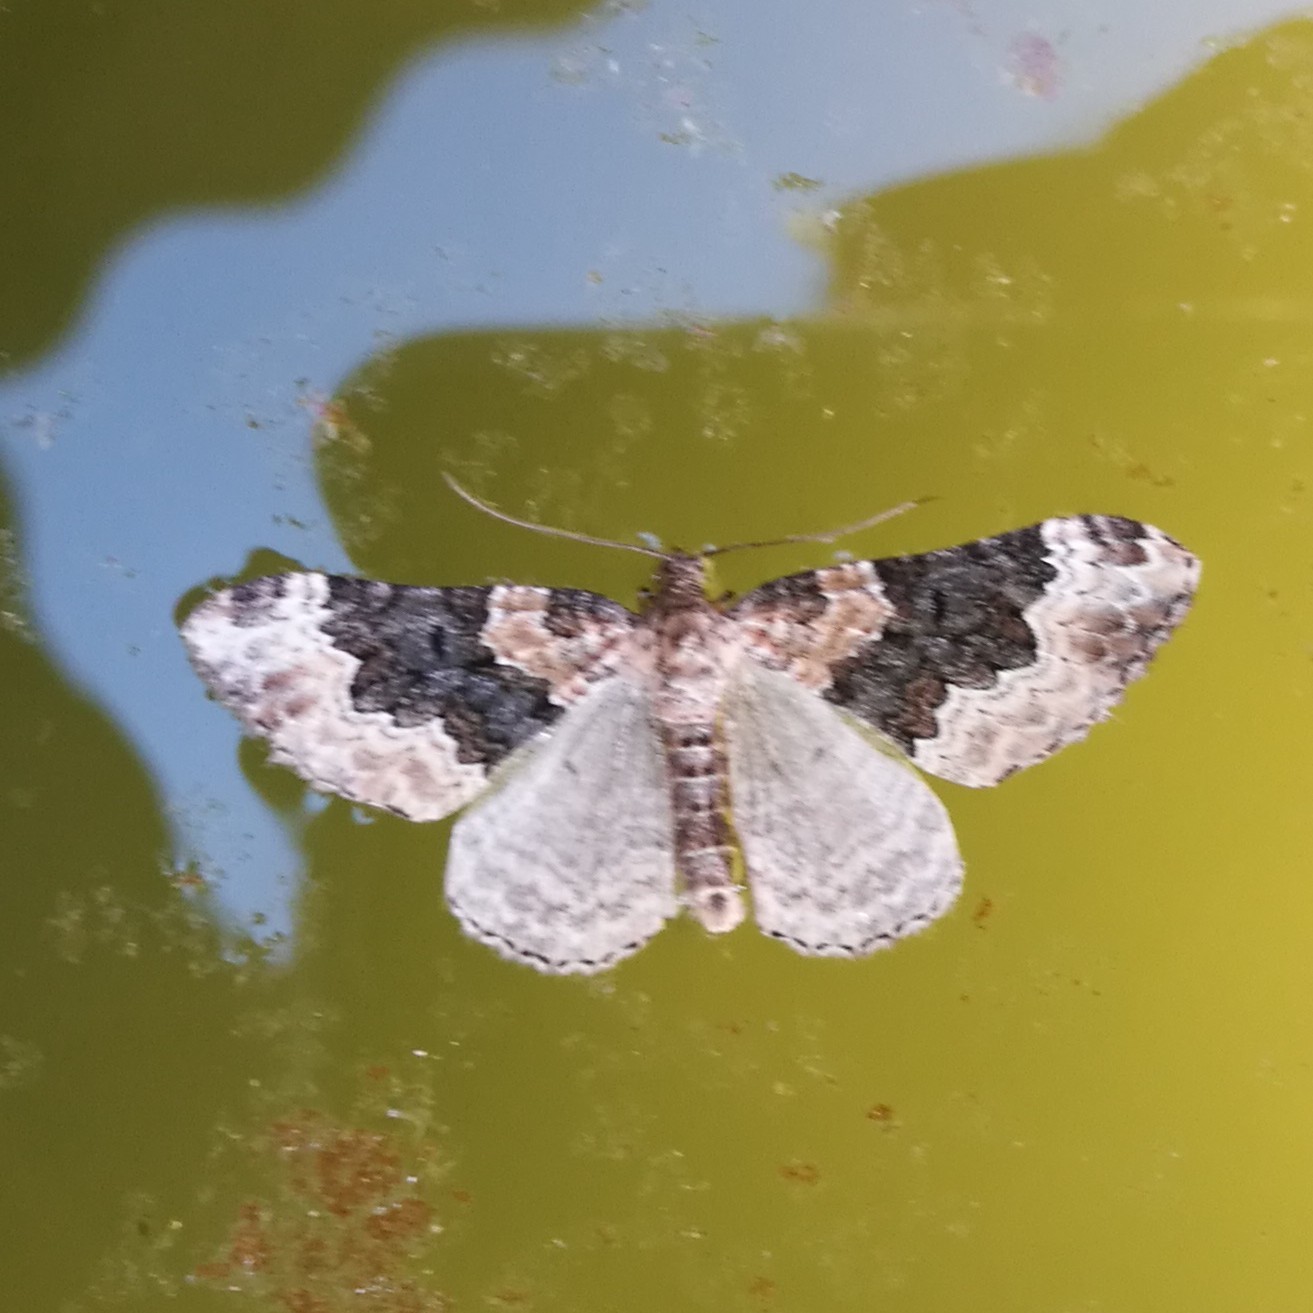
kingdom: Animalia
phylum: Arthropoda
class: Insecta
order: Lepidoptera
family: Geometridae
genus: Epirrhoe
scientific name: Epirrhoe galiata
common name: Galium carpet
